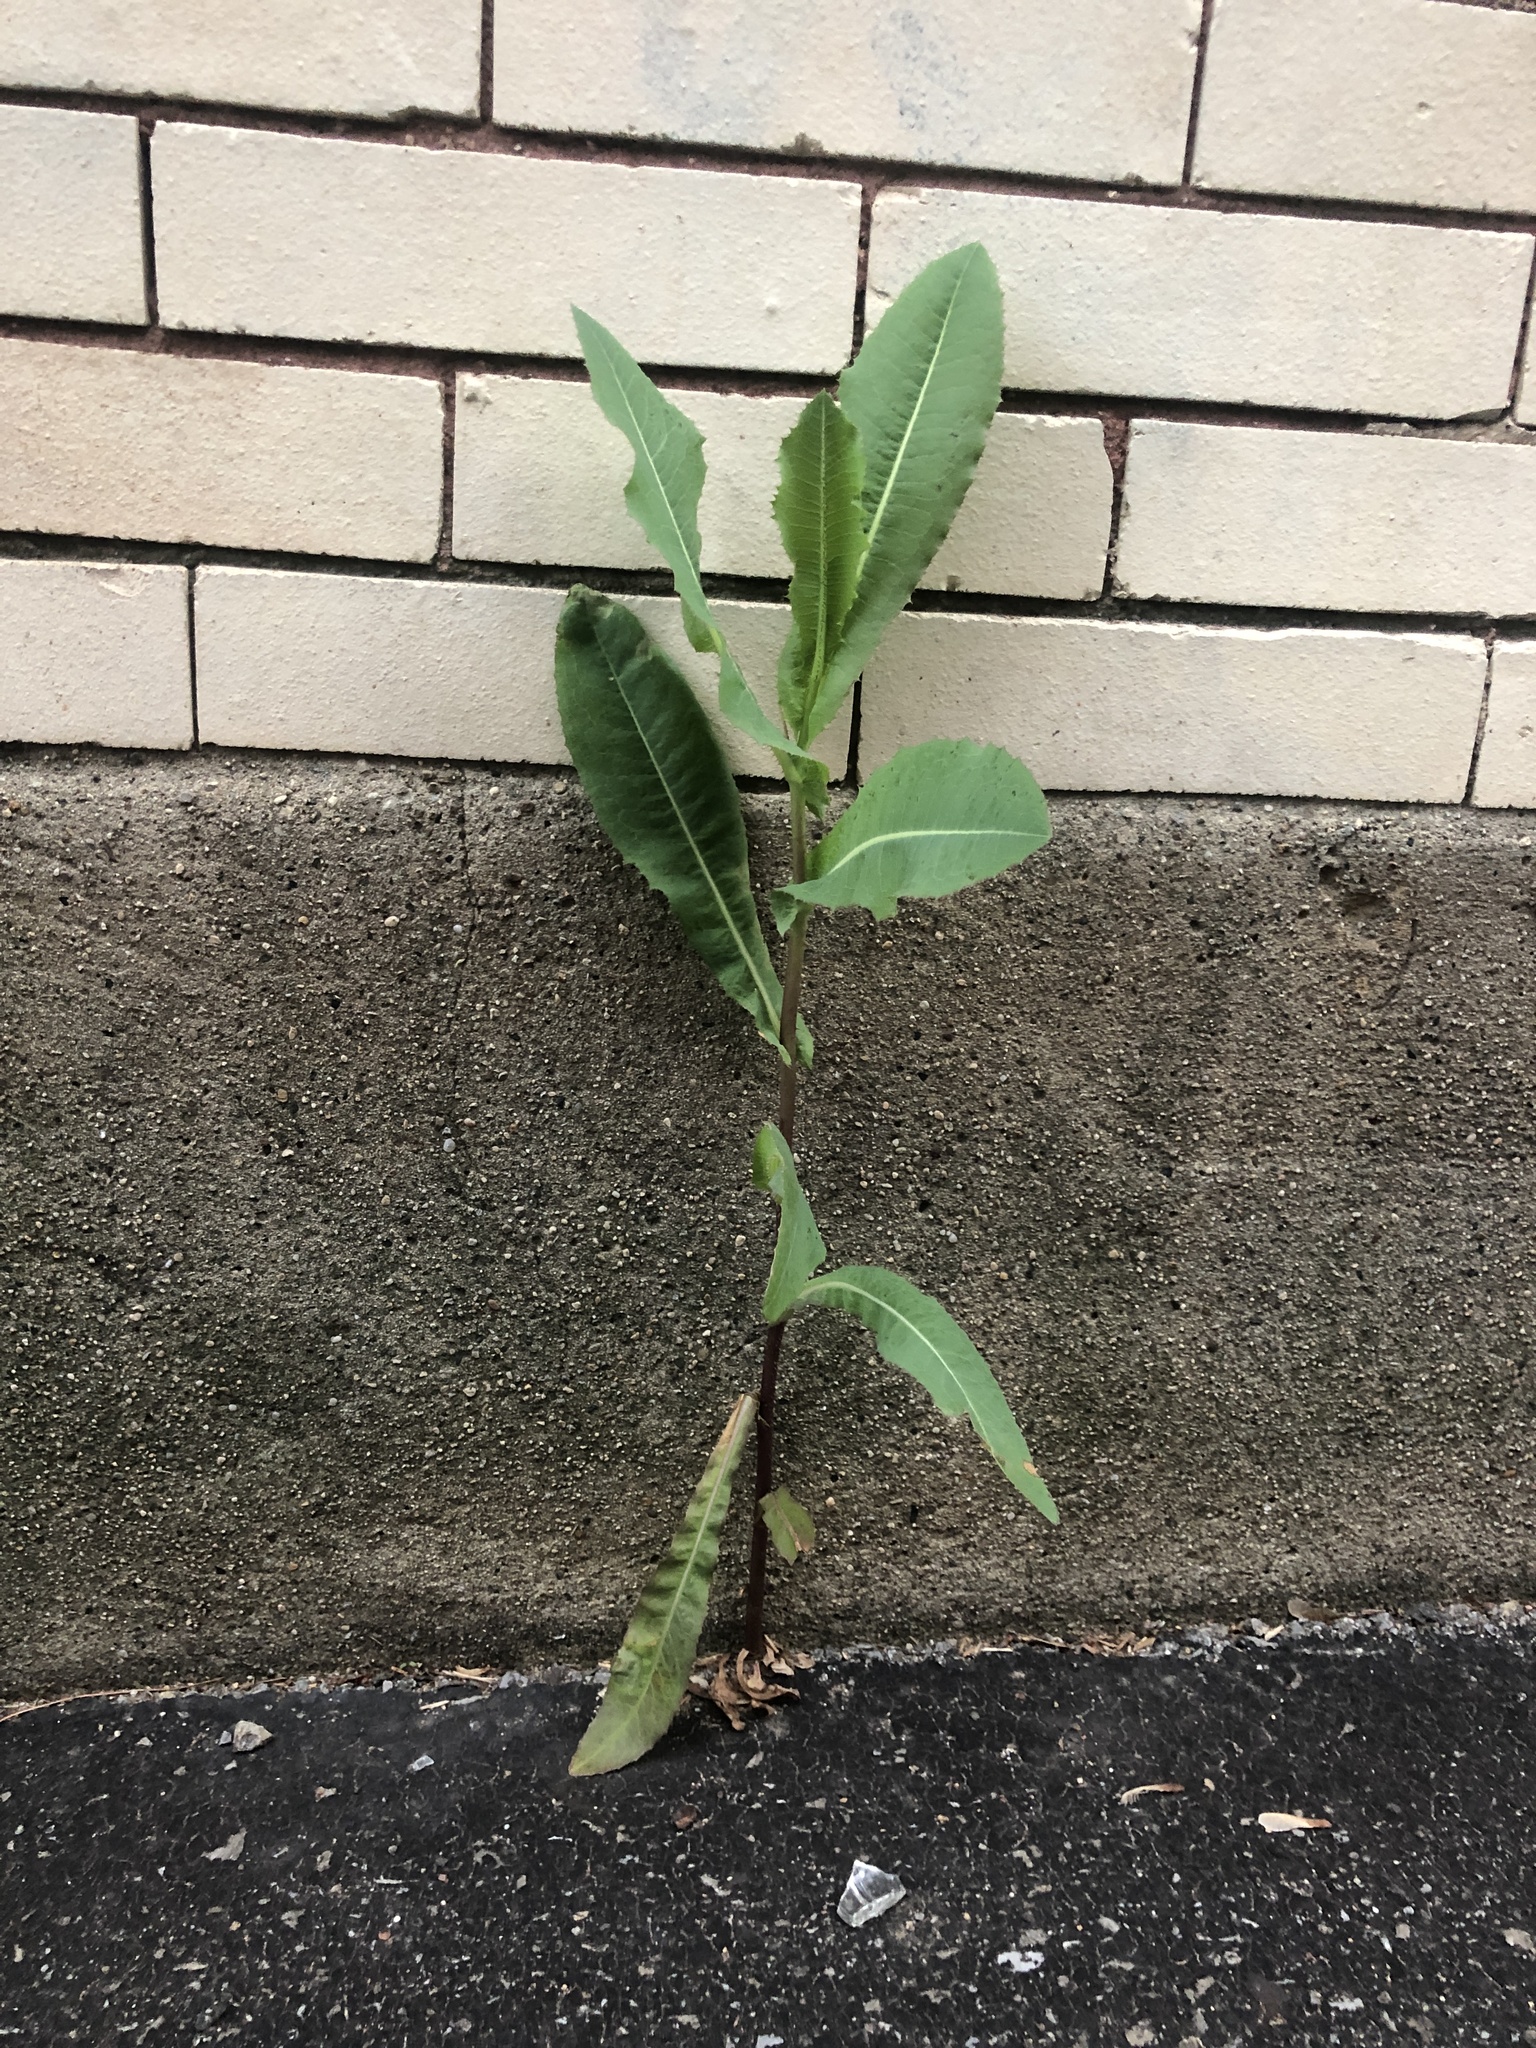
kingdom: Plantae
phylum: Tracheophyta
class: Magnoliopsida
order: Asterales
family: Asteraceae
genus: Lactuca
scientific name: Lactuca serriola
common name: Prickly lettuce
